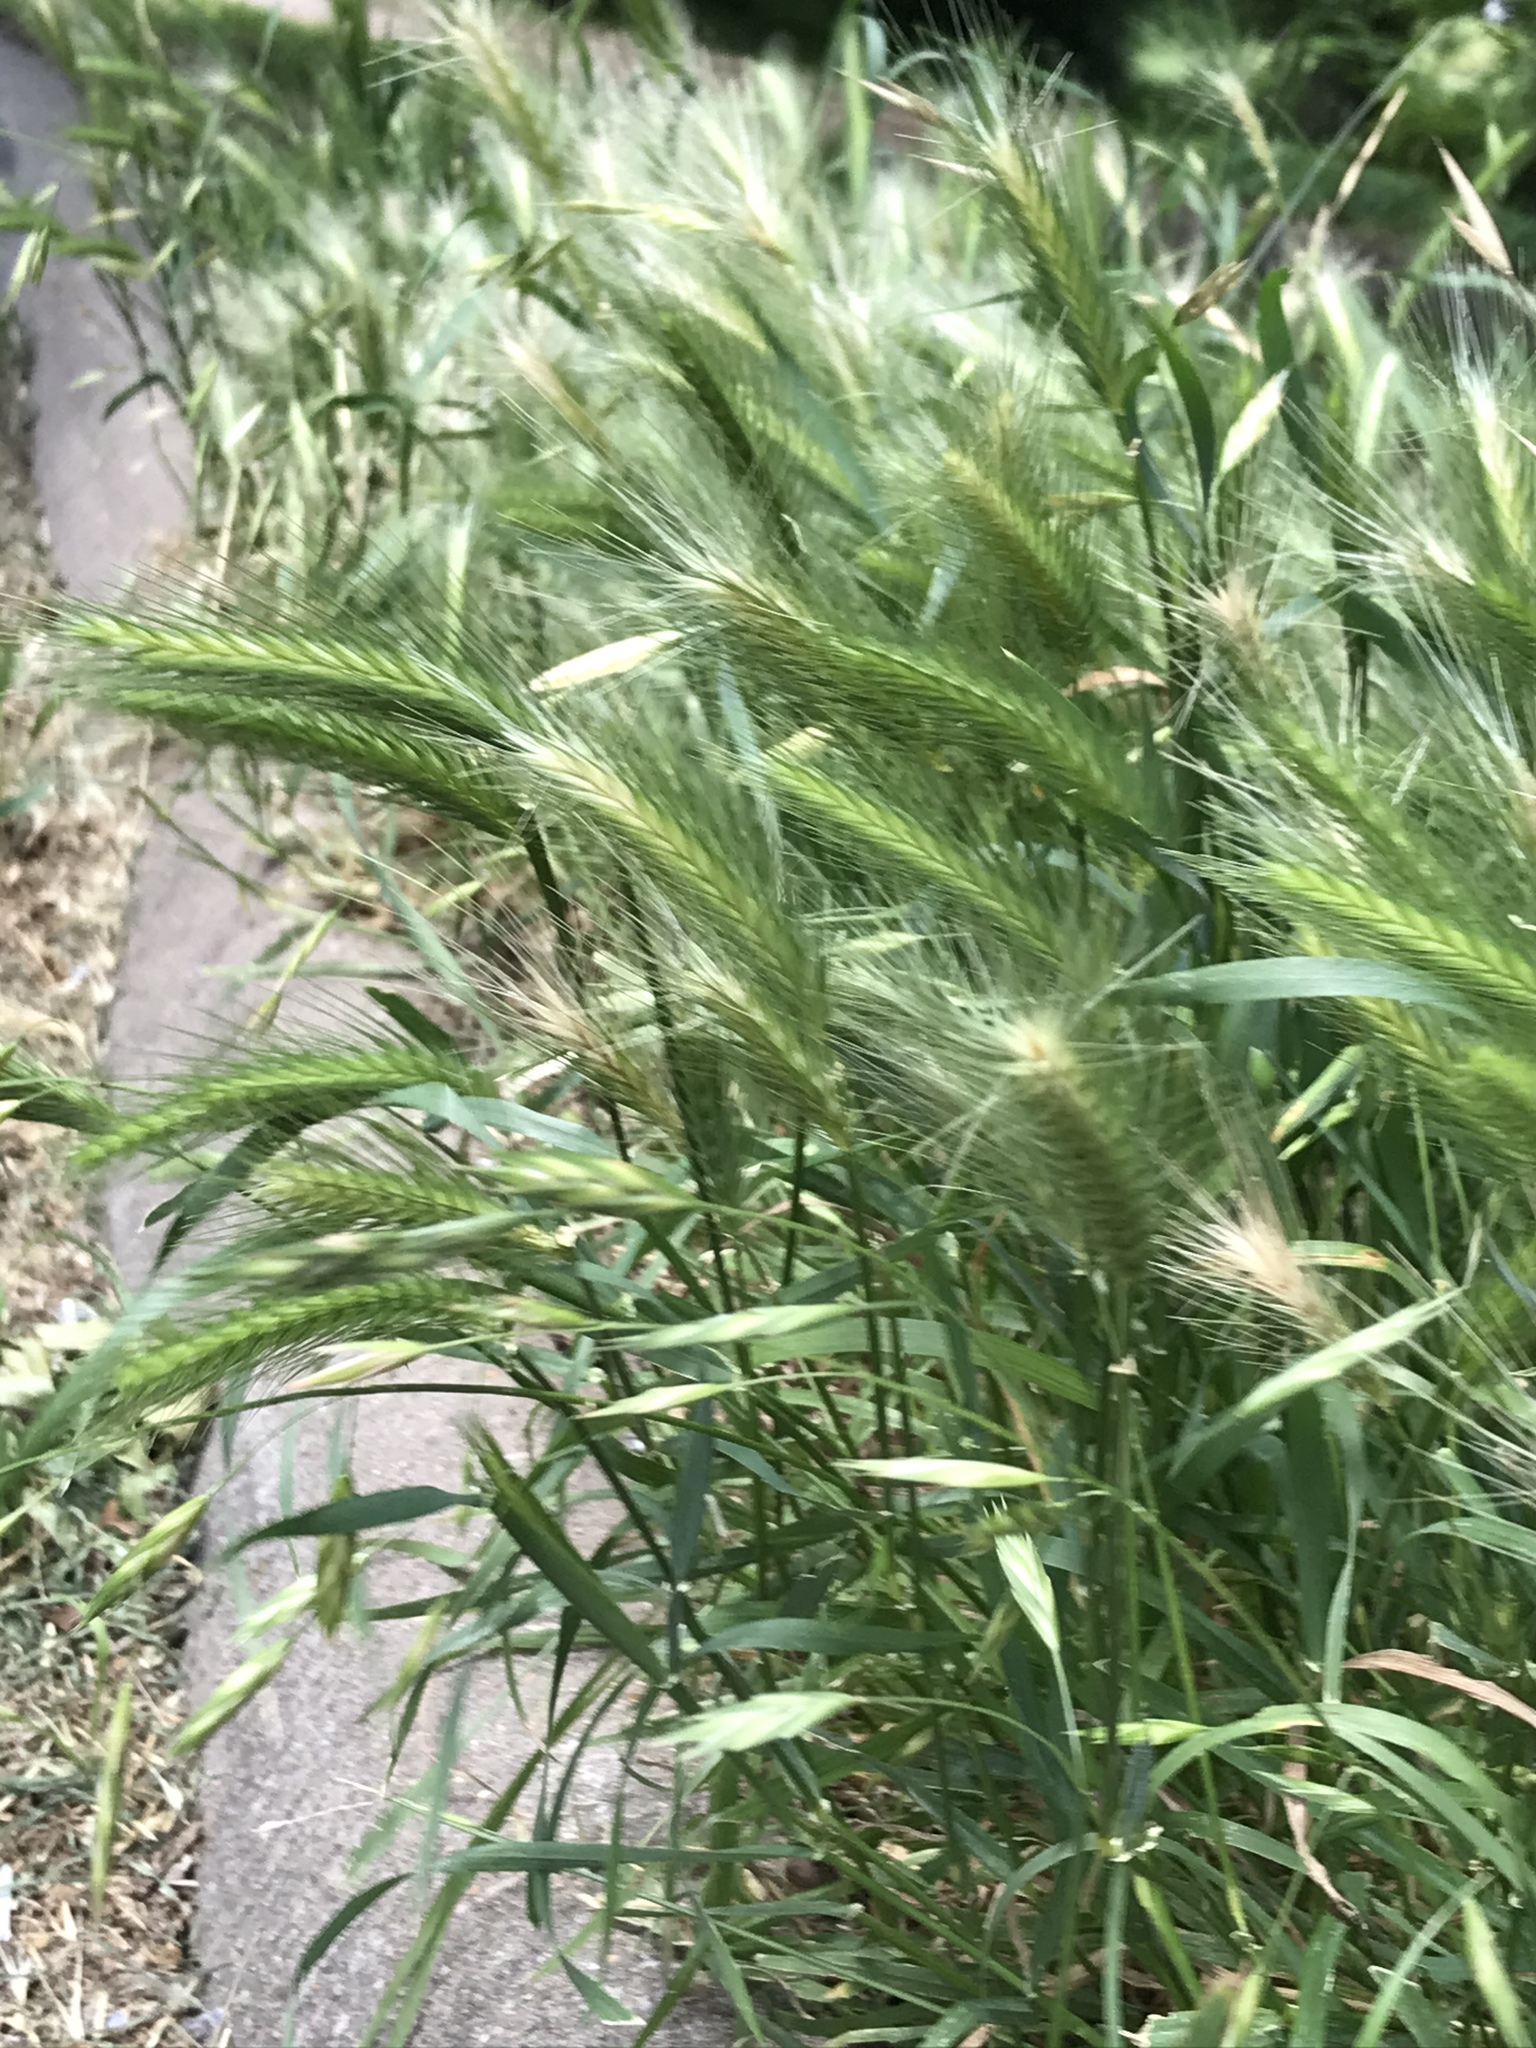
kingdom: Plantae
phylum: Tracheophyta
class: Liliopsida
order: Poales
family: Poaceae
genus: Hordeum
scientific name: Hordeum murinum
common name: Wall barley
